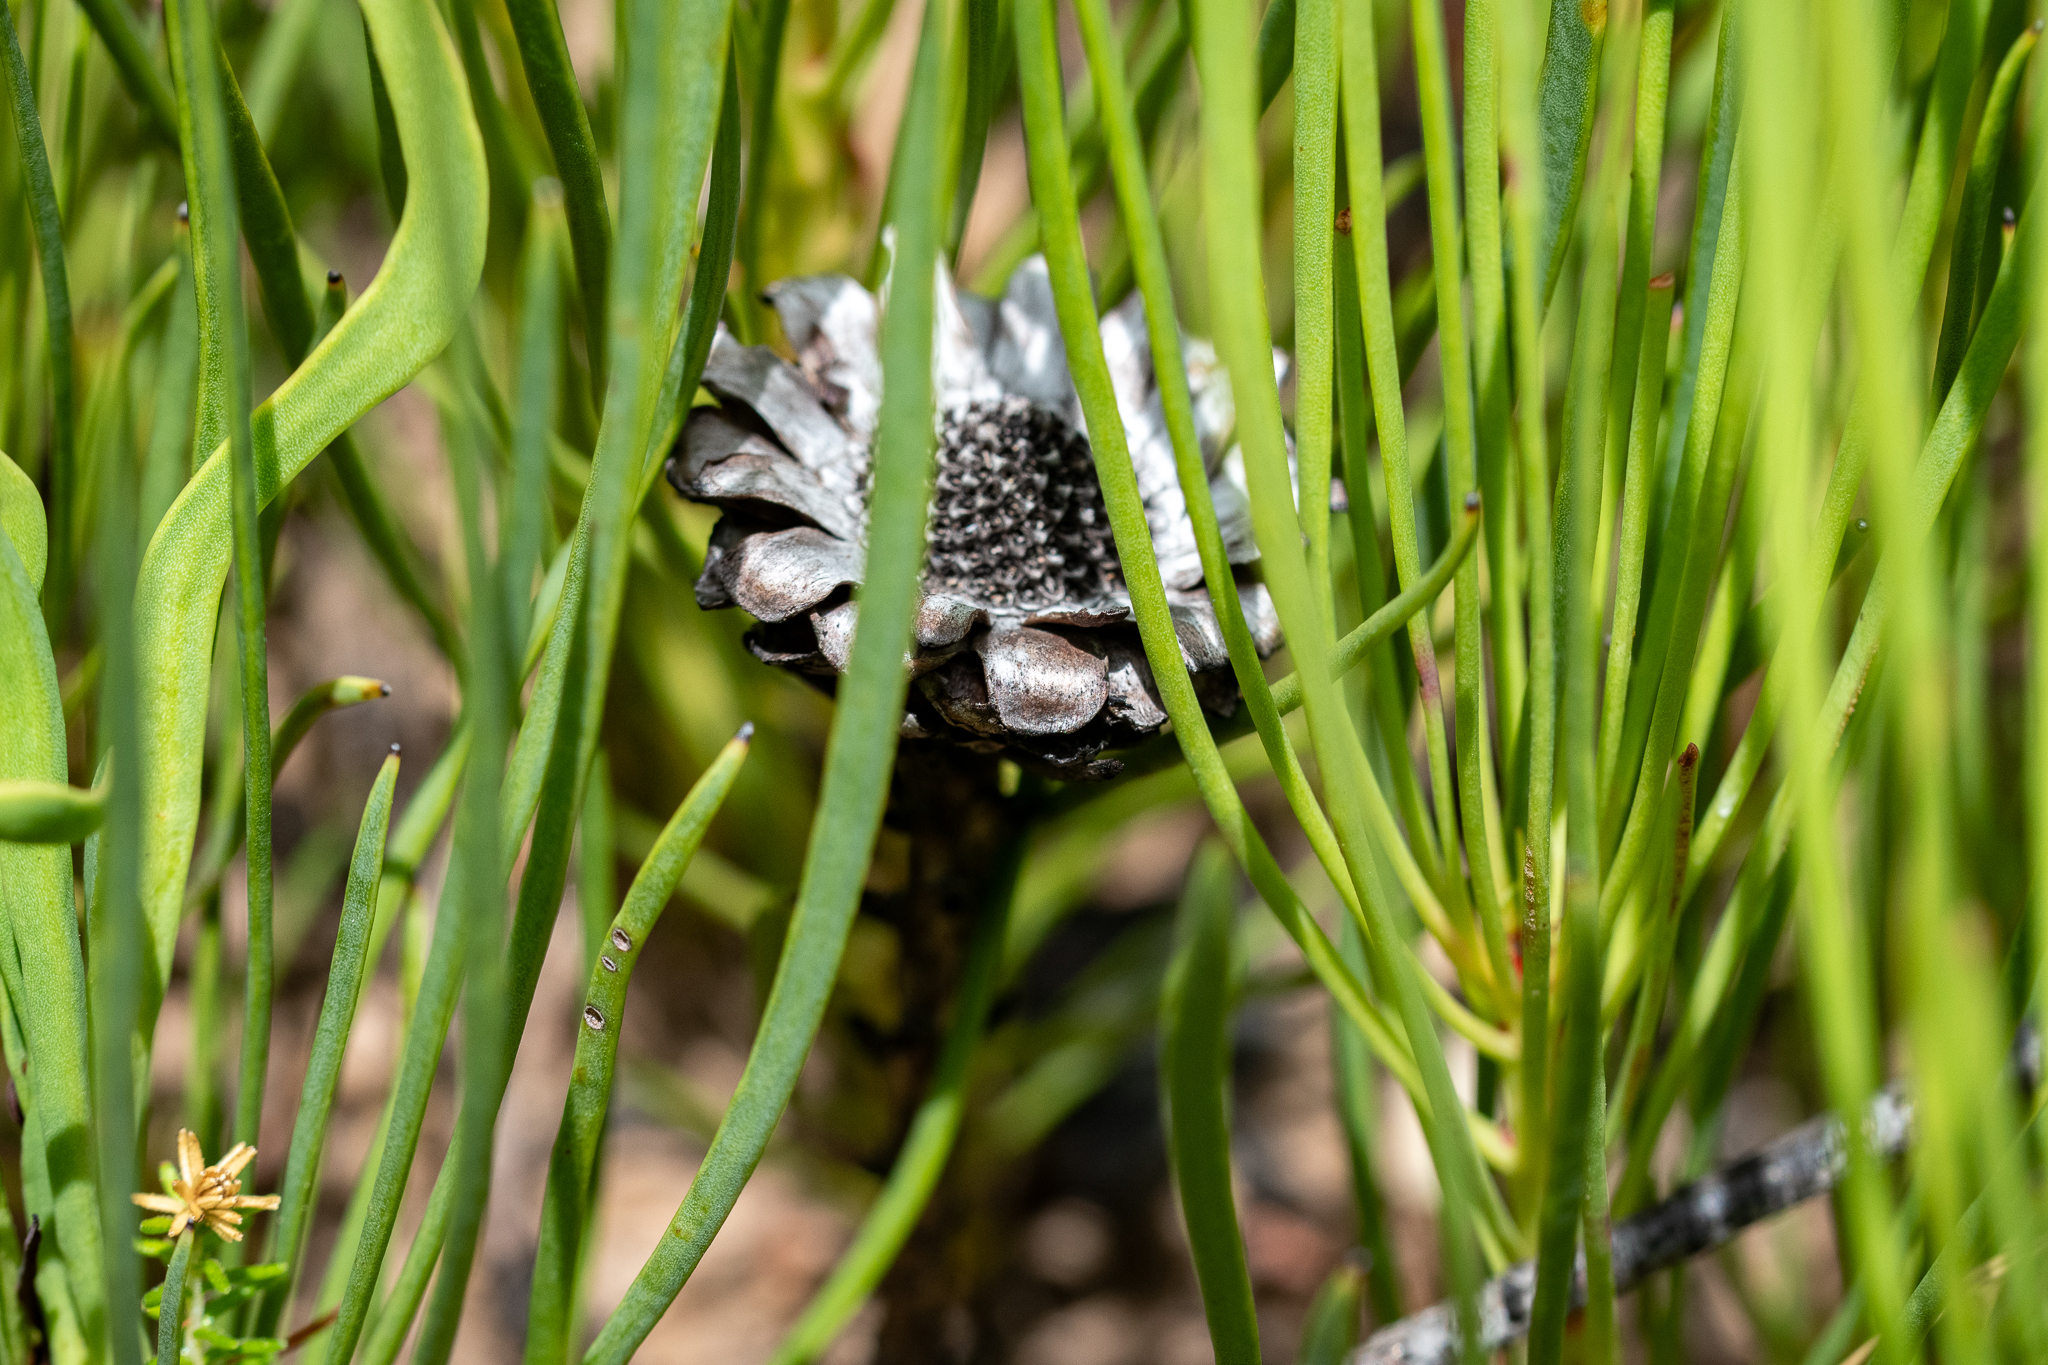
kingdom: Plantae
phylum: Tracheophyta
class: Magnoliopsida
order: Proteales
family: Proteaceae
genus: Protea
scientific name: Protea angustata
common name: Kleinmond sugarbush
